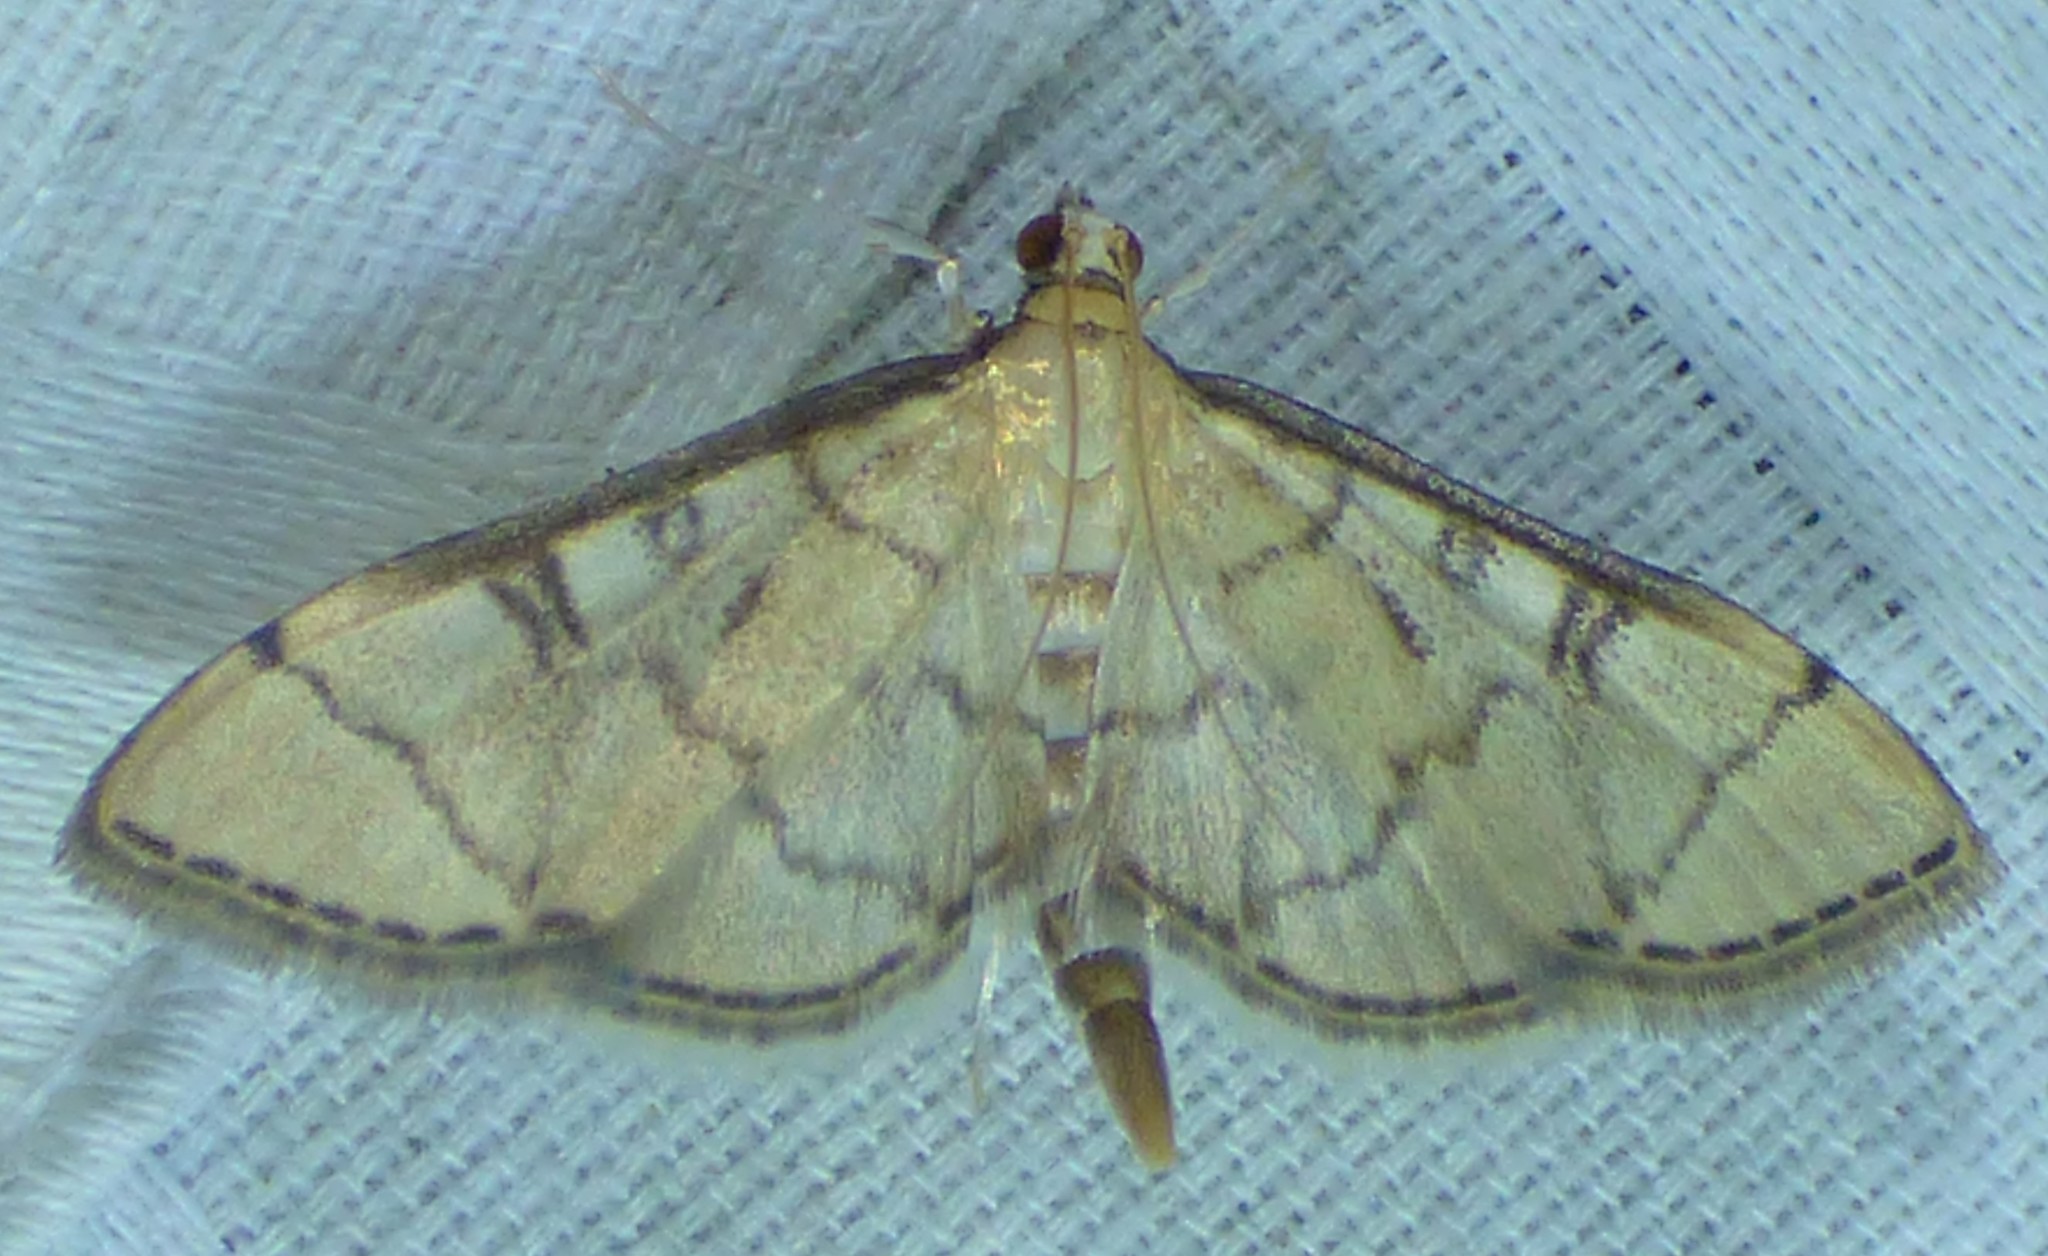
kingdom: Animalia
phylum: Arthropoda
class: Insecta
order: Lepidoptera
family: Crambidae
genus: Lamprosema
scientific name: Lamprosema Blepharomastix ranalis
